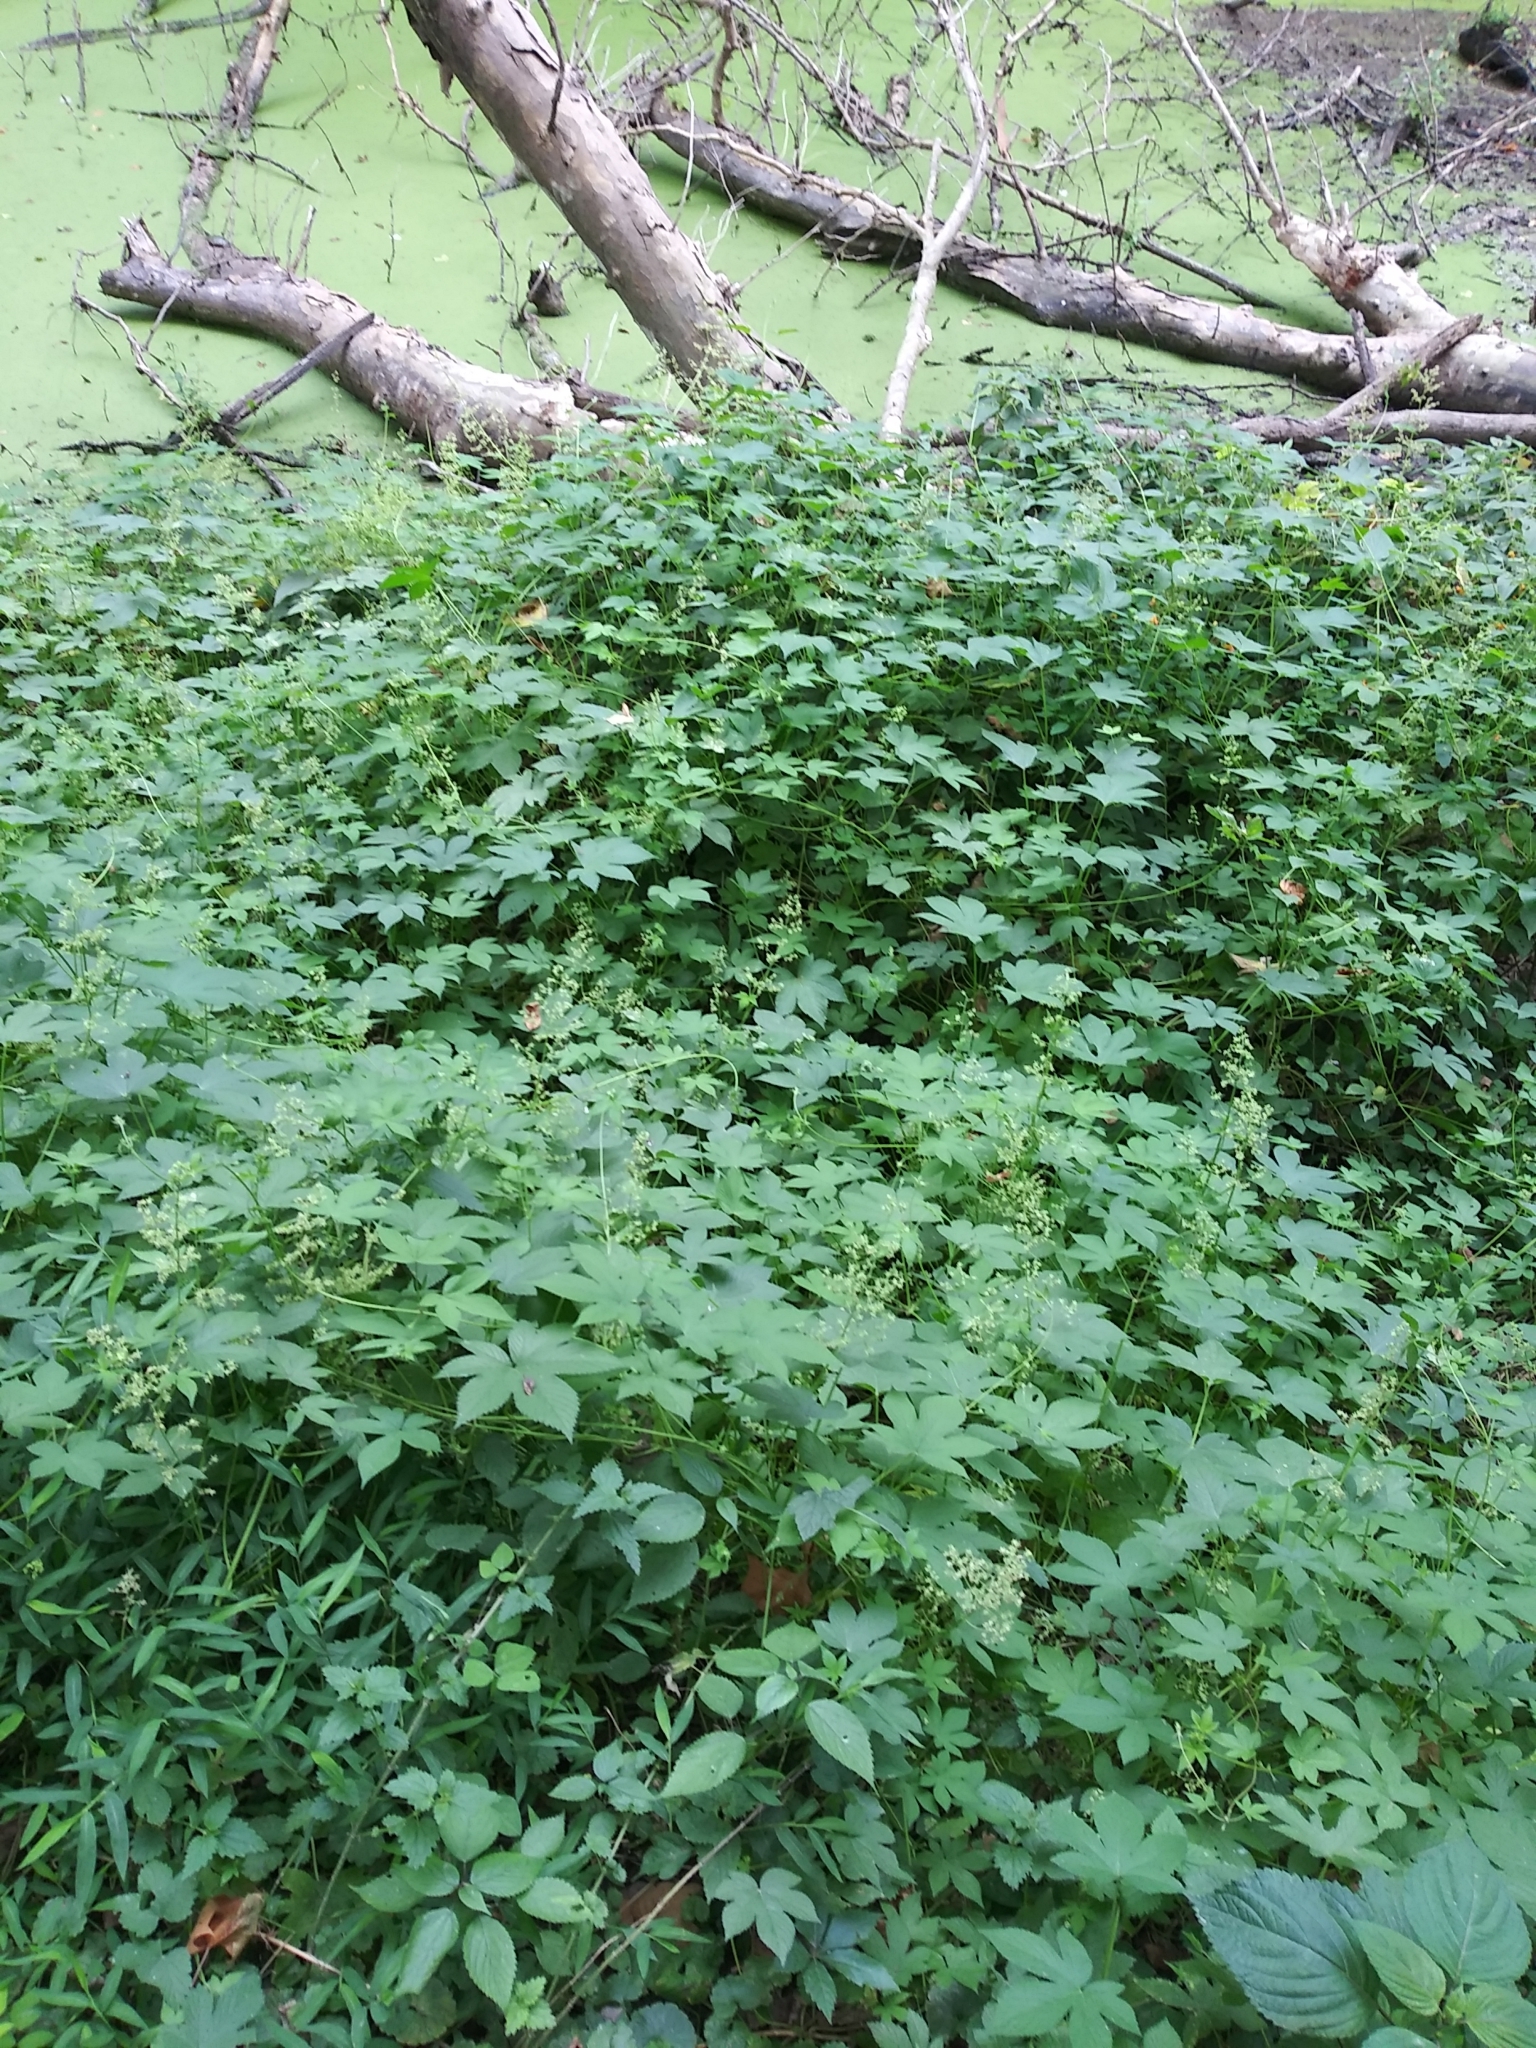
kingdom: Plantae
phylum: Tracheophyta
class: Magnoliopsida
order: Rosales
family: Cannabaceae
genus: Humulus
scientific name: Humulus scandens
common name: Japanese hop
